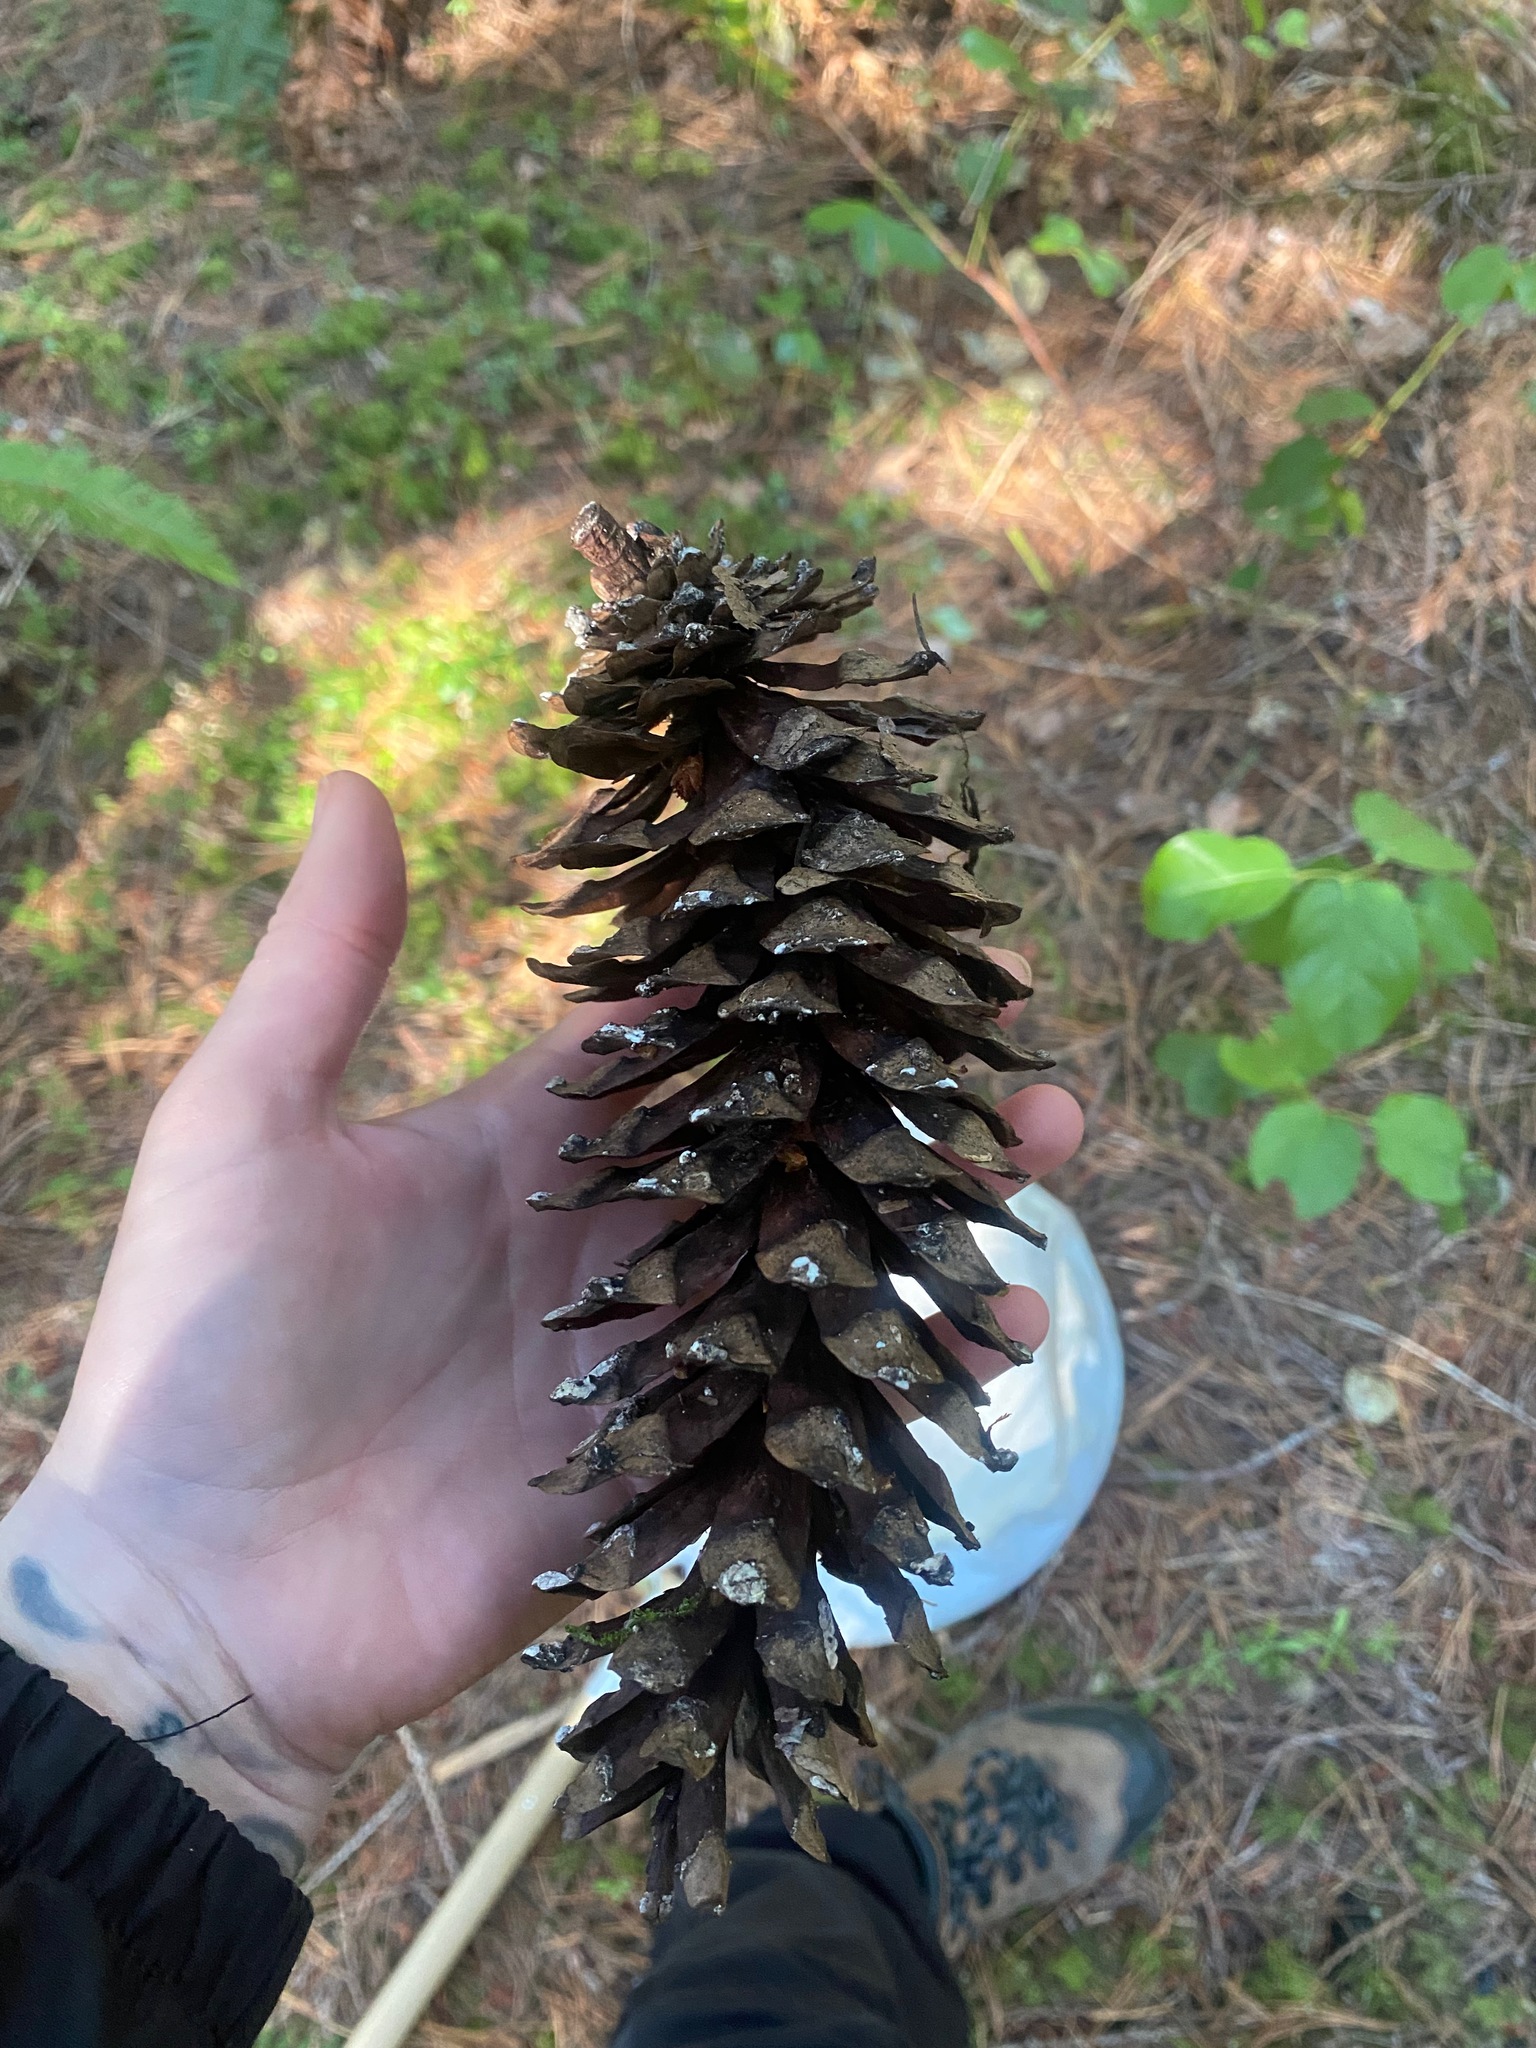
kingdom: Plantae
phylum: Tracheophyta
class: Pinopsida
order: Pinales
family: Pinaceae
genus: Pinus
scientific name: Pinus monticola
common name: Western white pine
